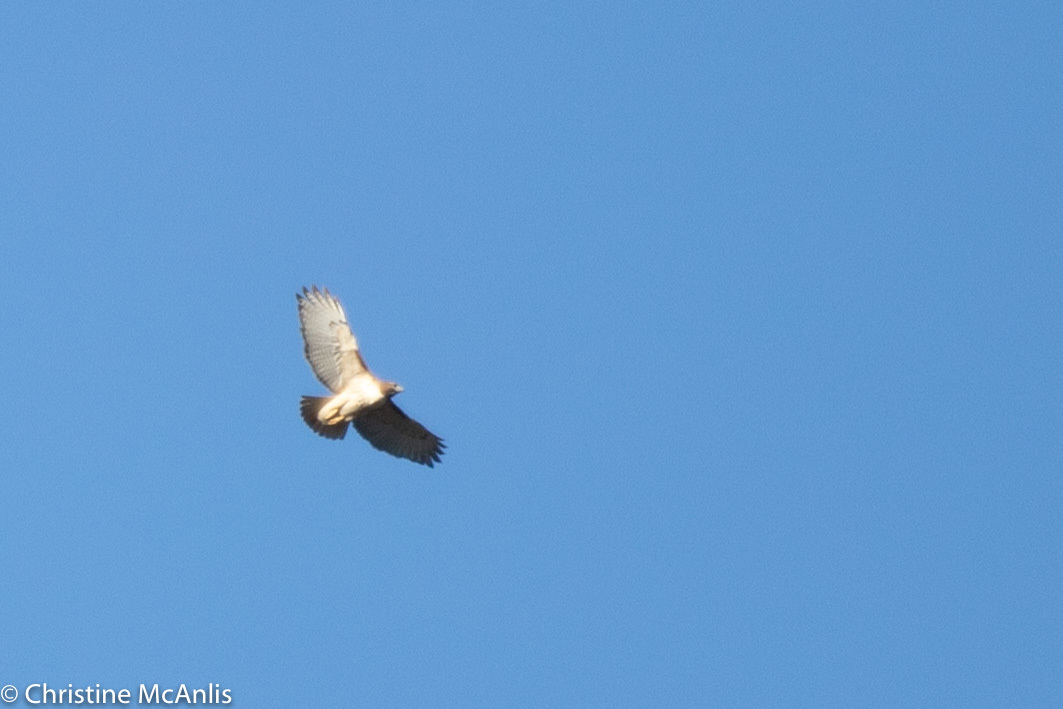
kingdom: Animalia
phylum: Chordata
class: Aves
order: Accipitriformes
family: Accipitridae
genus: Buteo
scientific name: Buteo jamaicensis
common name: Red-tailed hawk
